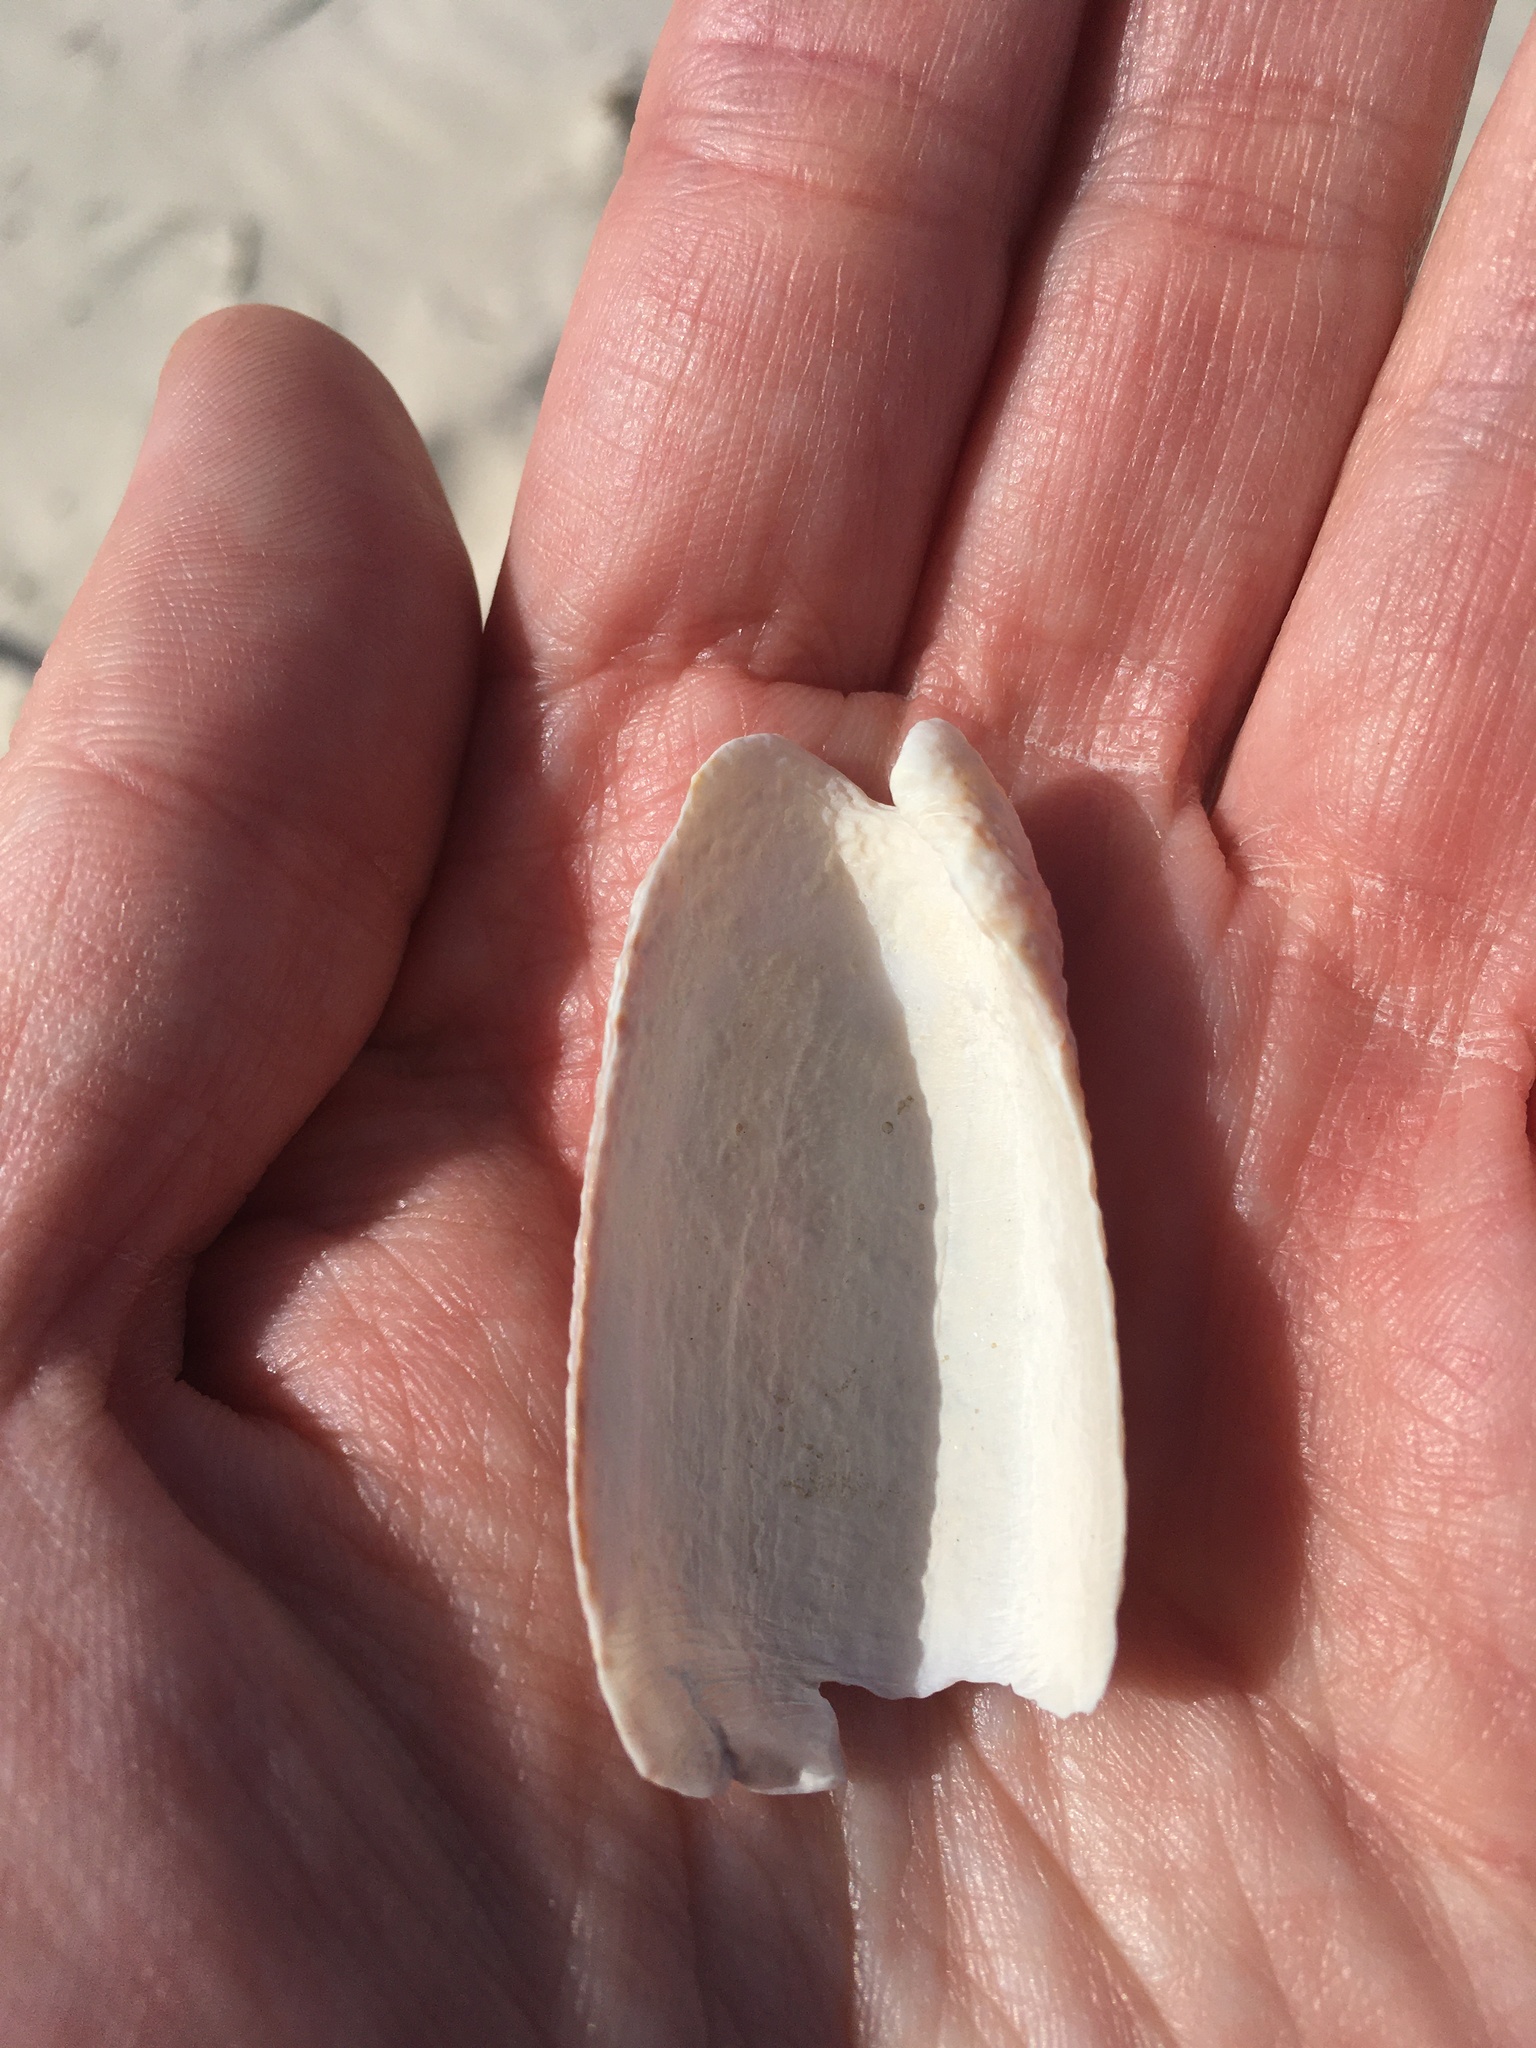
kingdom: Animalia
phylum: Mollusca
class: Gastropoda
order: Neogastropoda
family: Olividae
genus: Oliva
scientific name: Oliva sayana
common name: Lettered olive
